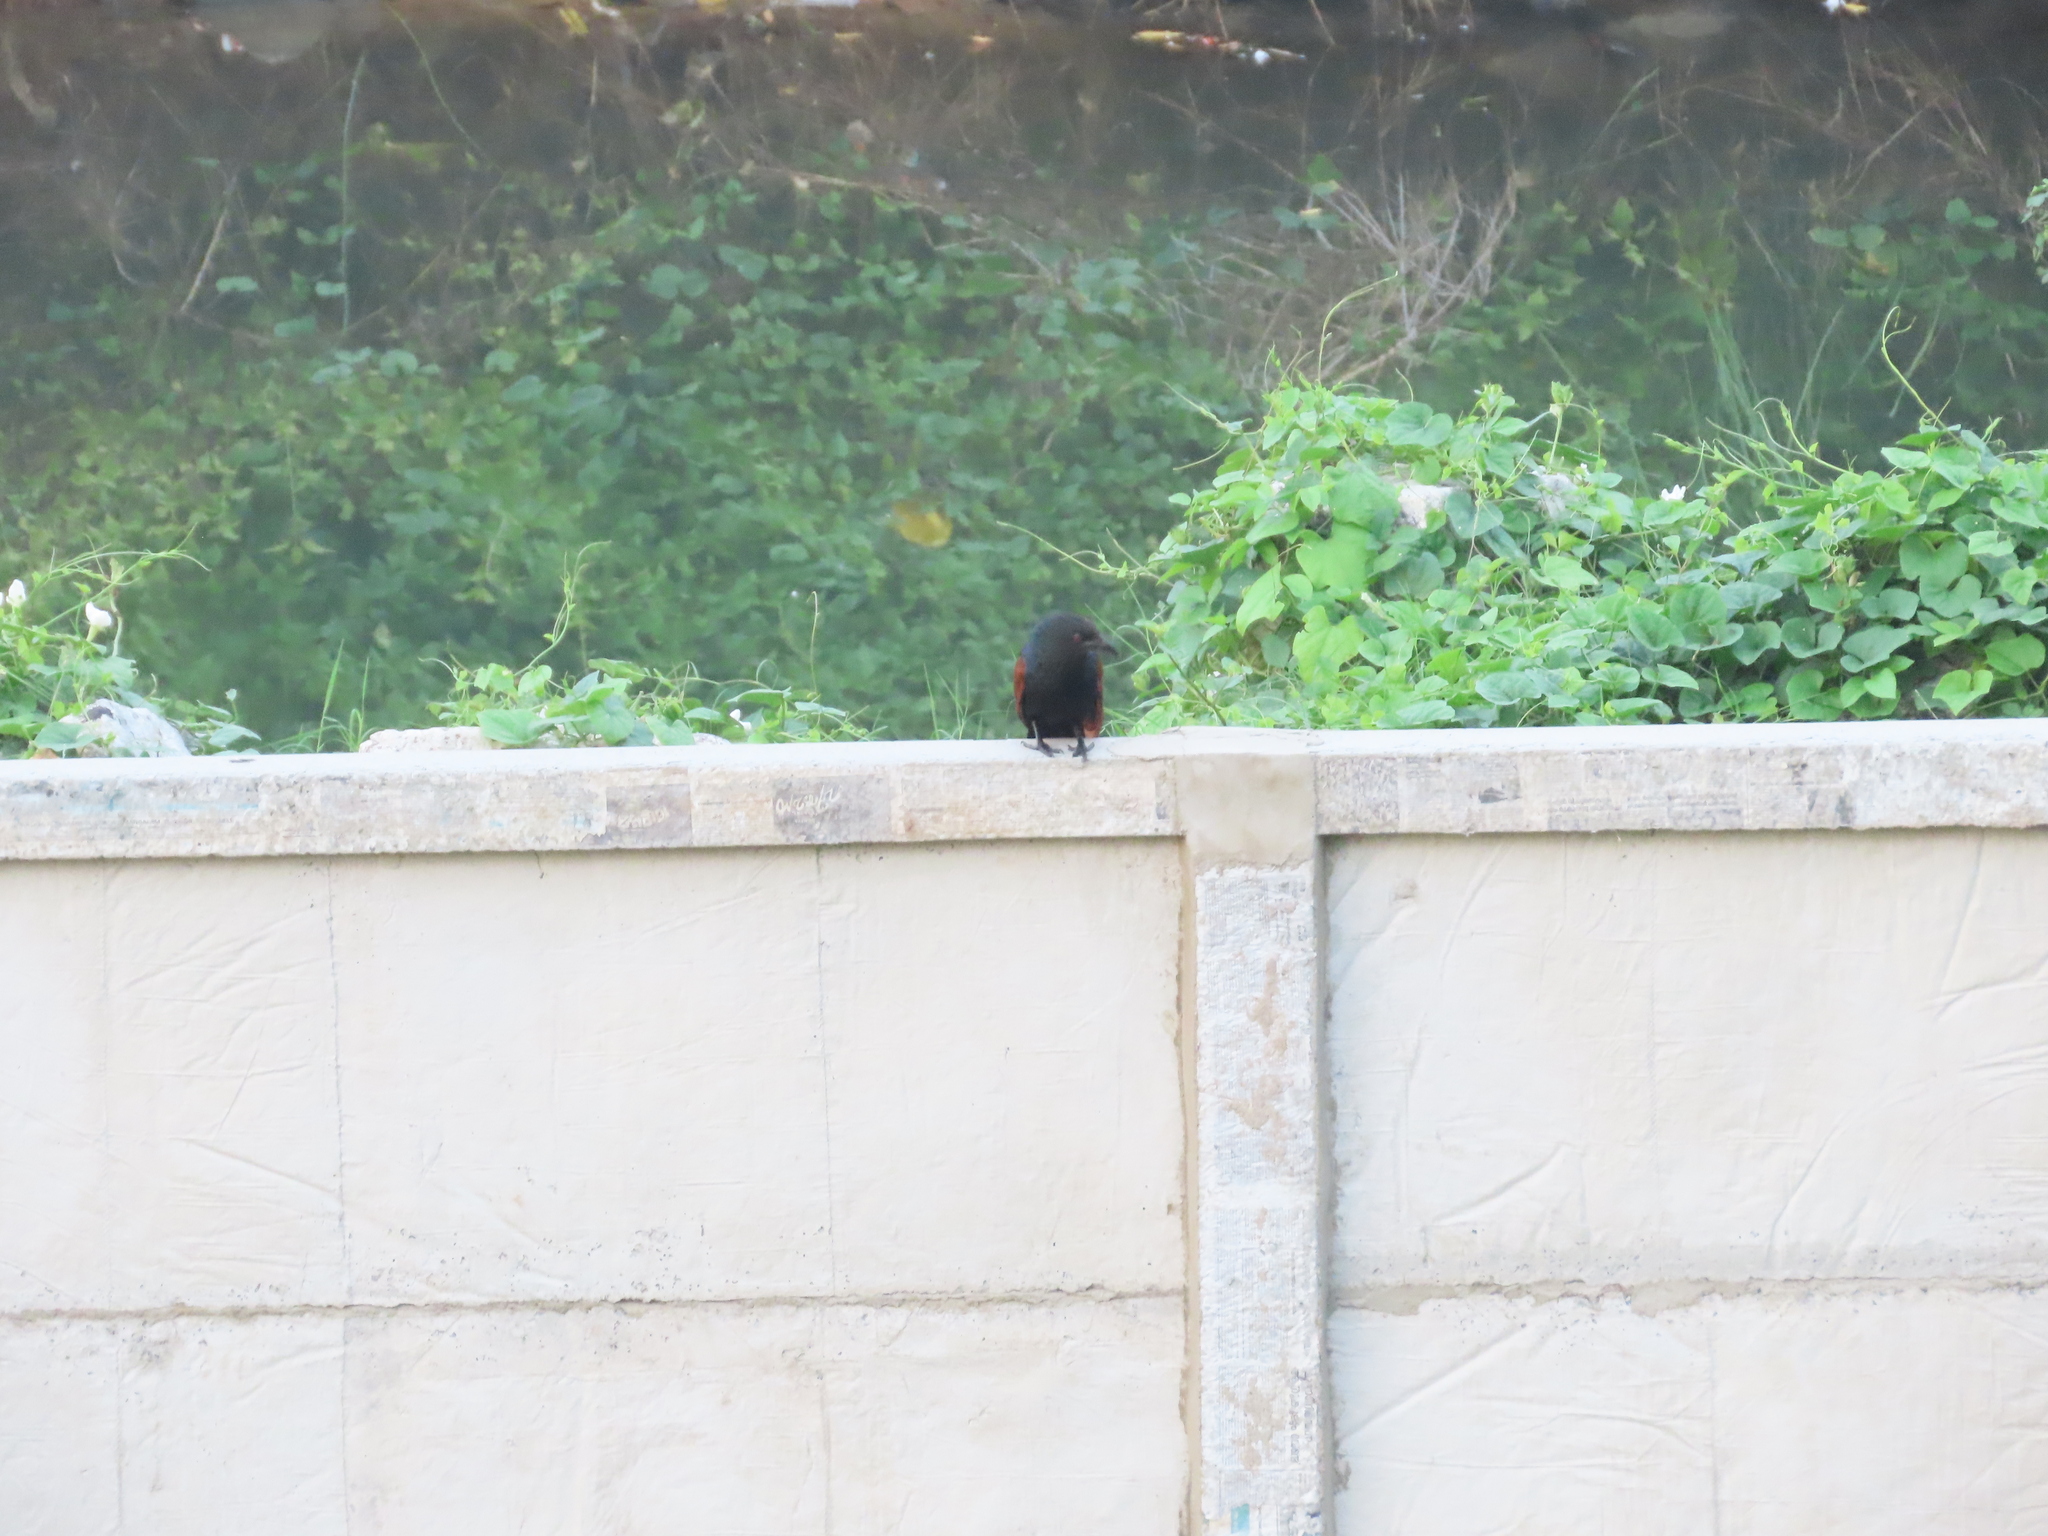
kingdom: Animalia
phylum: Chordata
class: Aves
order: Cuculiformes
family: Cuculidae
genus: Centropus
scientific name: Centropus sinensis
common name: Greater coucal
